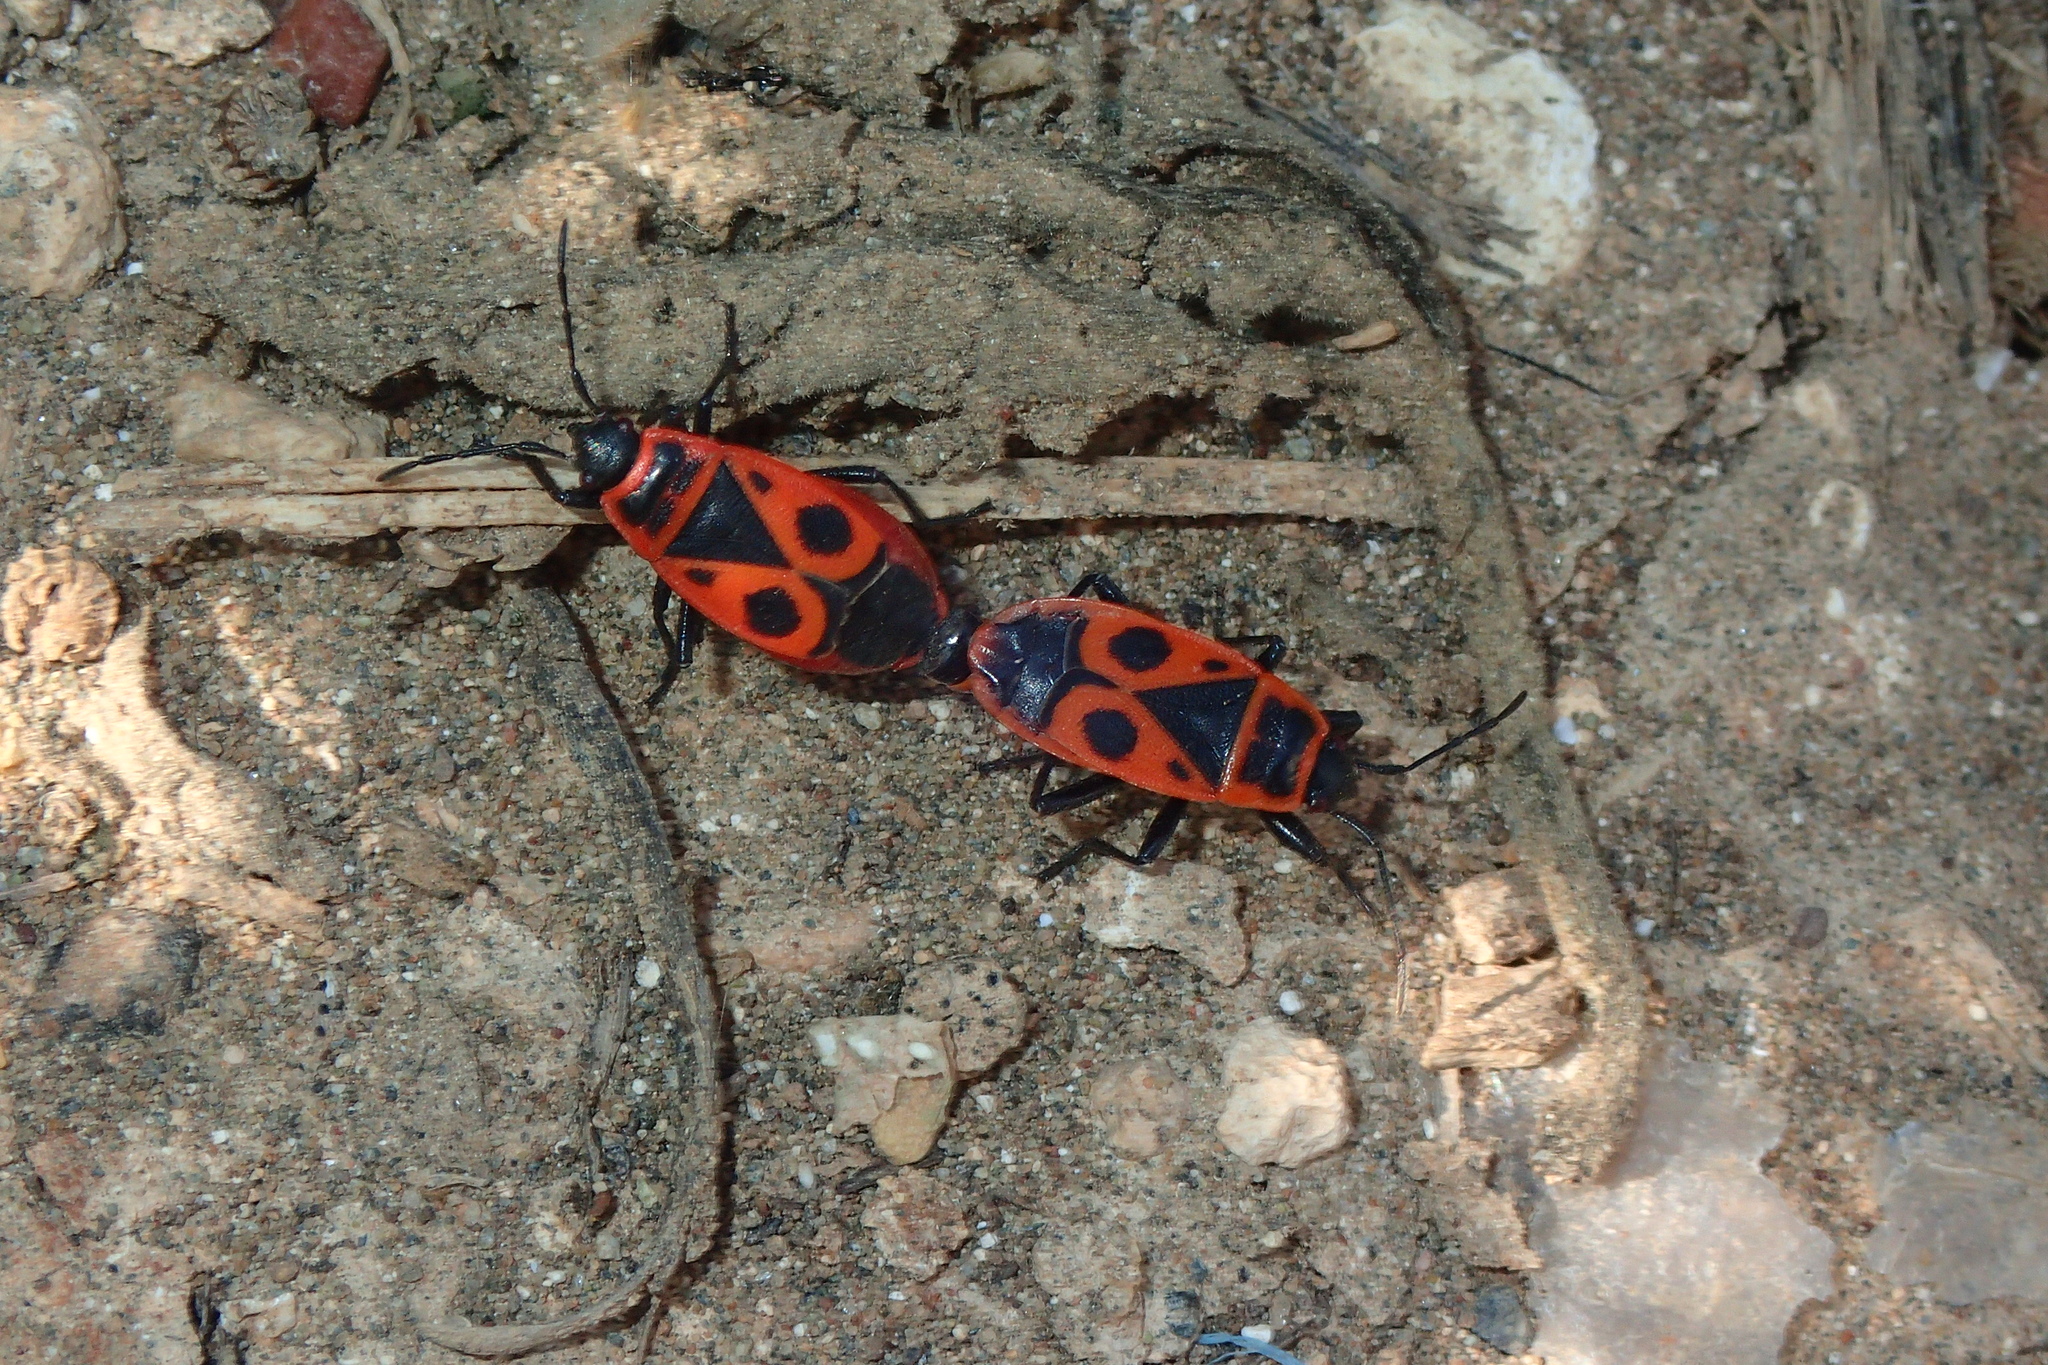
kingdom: Animalia
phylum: Arthropoda
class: Insecta
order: Hemiptera
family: Pyrrhocoridae
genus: Pyrrhocoris
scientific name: Pyrrhocoris apterus
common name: Firebug
